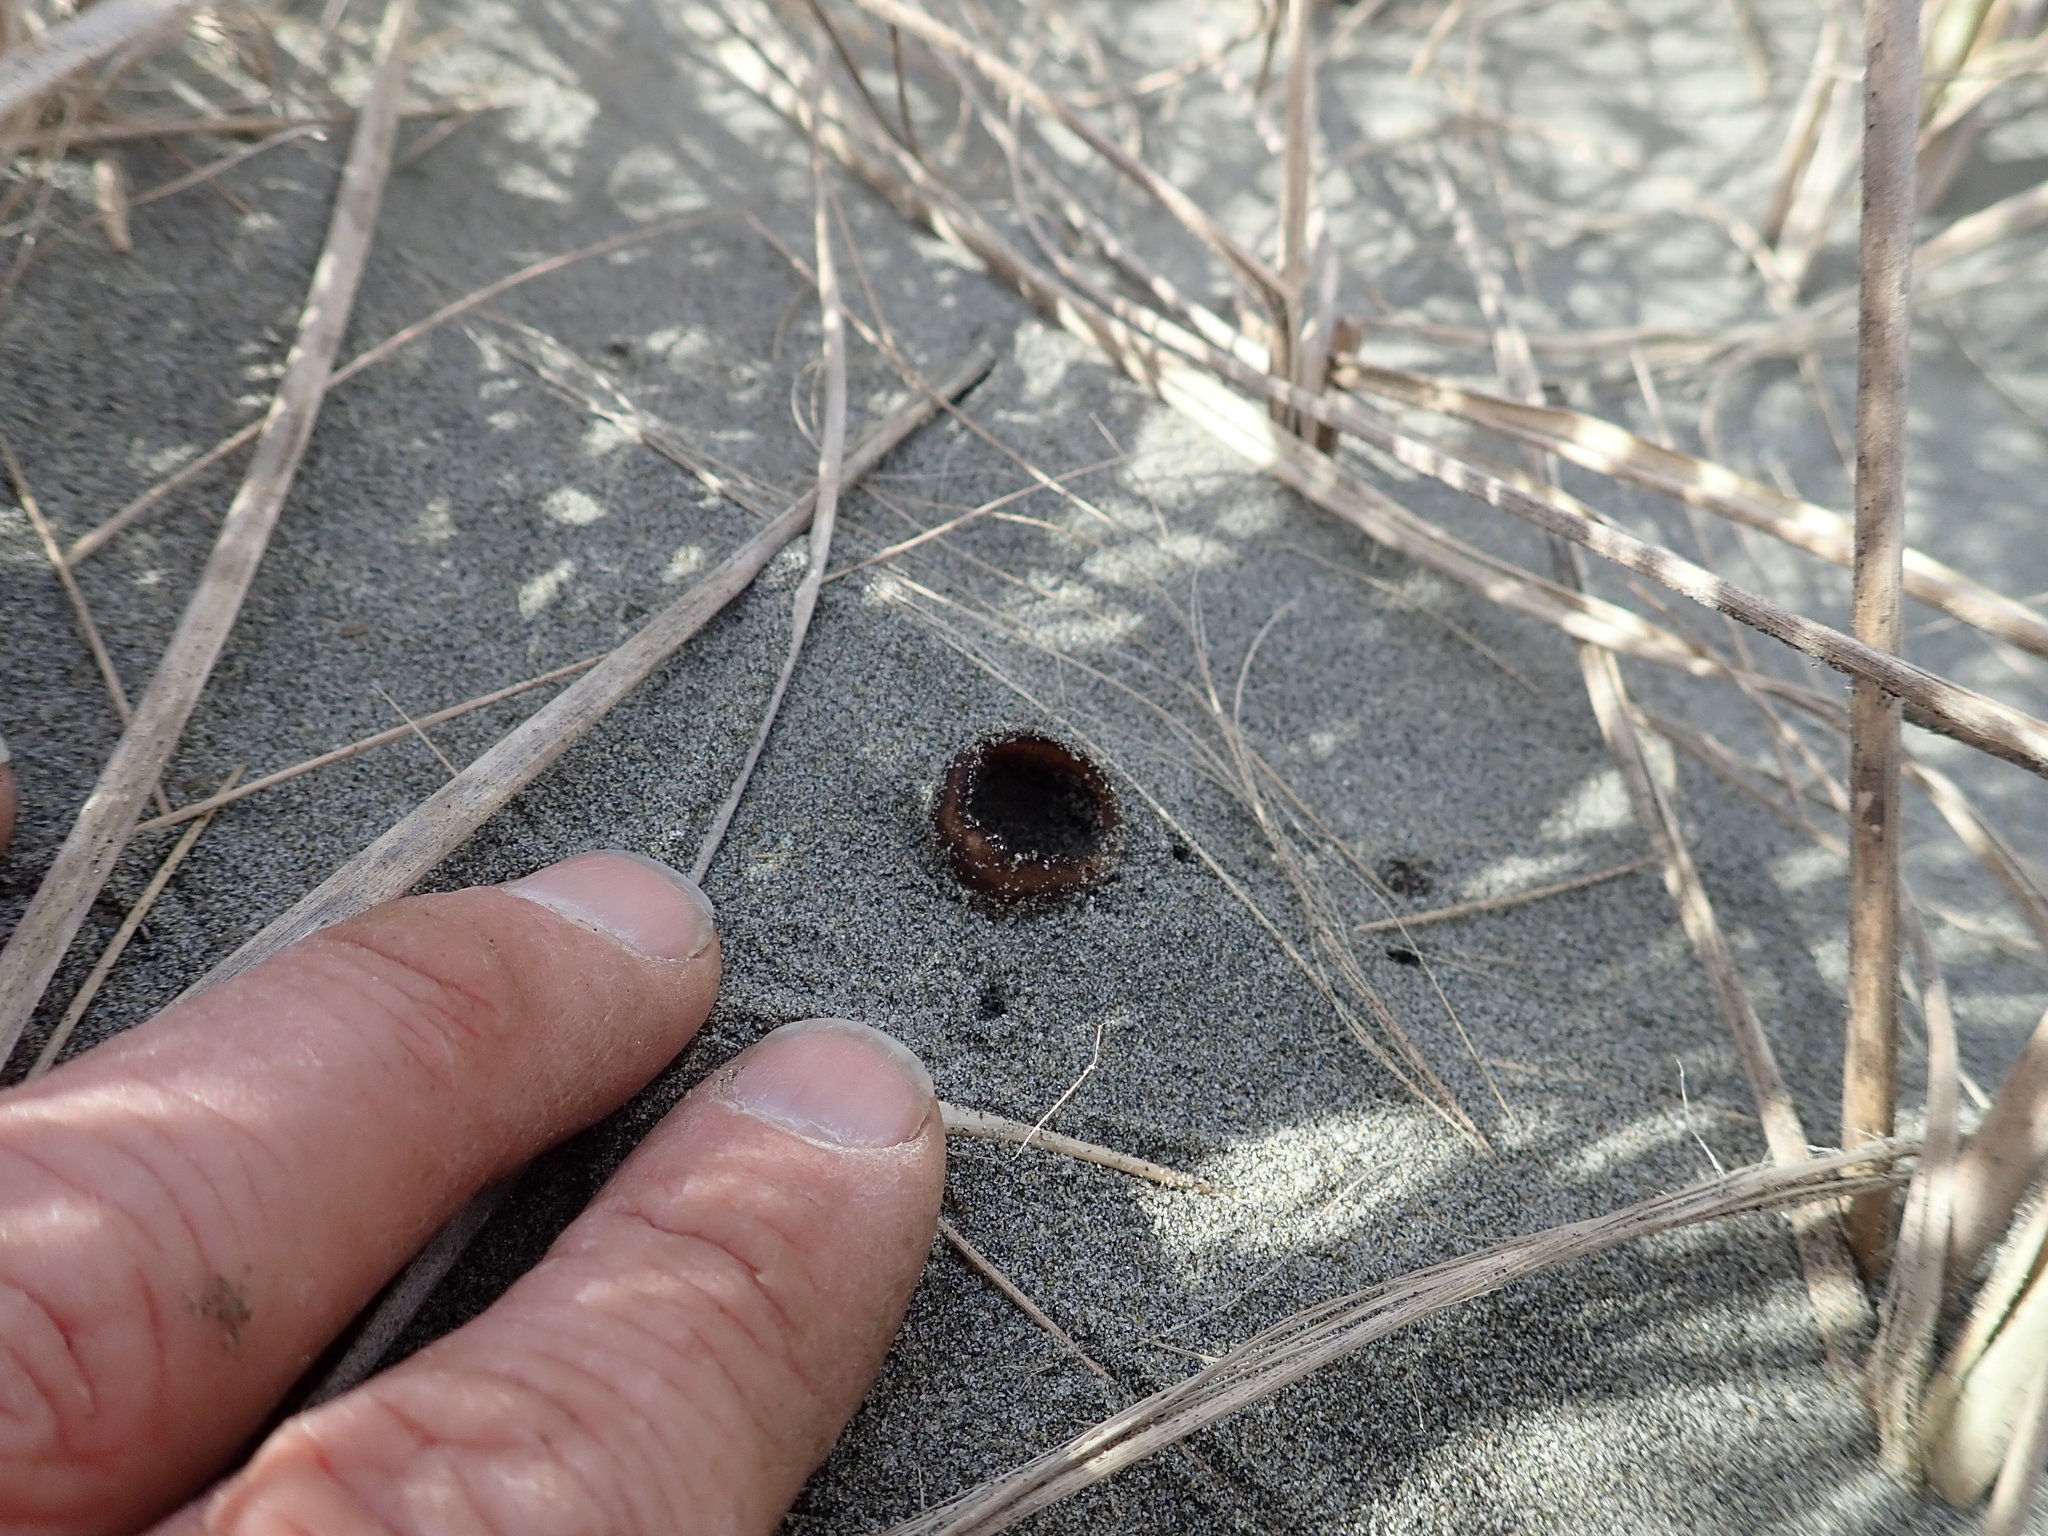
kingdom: Fungi
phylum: Ascomycota
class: Pezizomycetes
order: Pezizales
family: Pezizaceae
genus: Peziza
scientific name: Peziza oceanica
